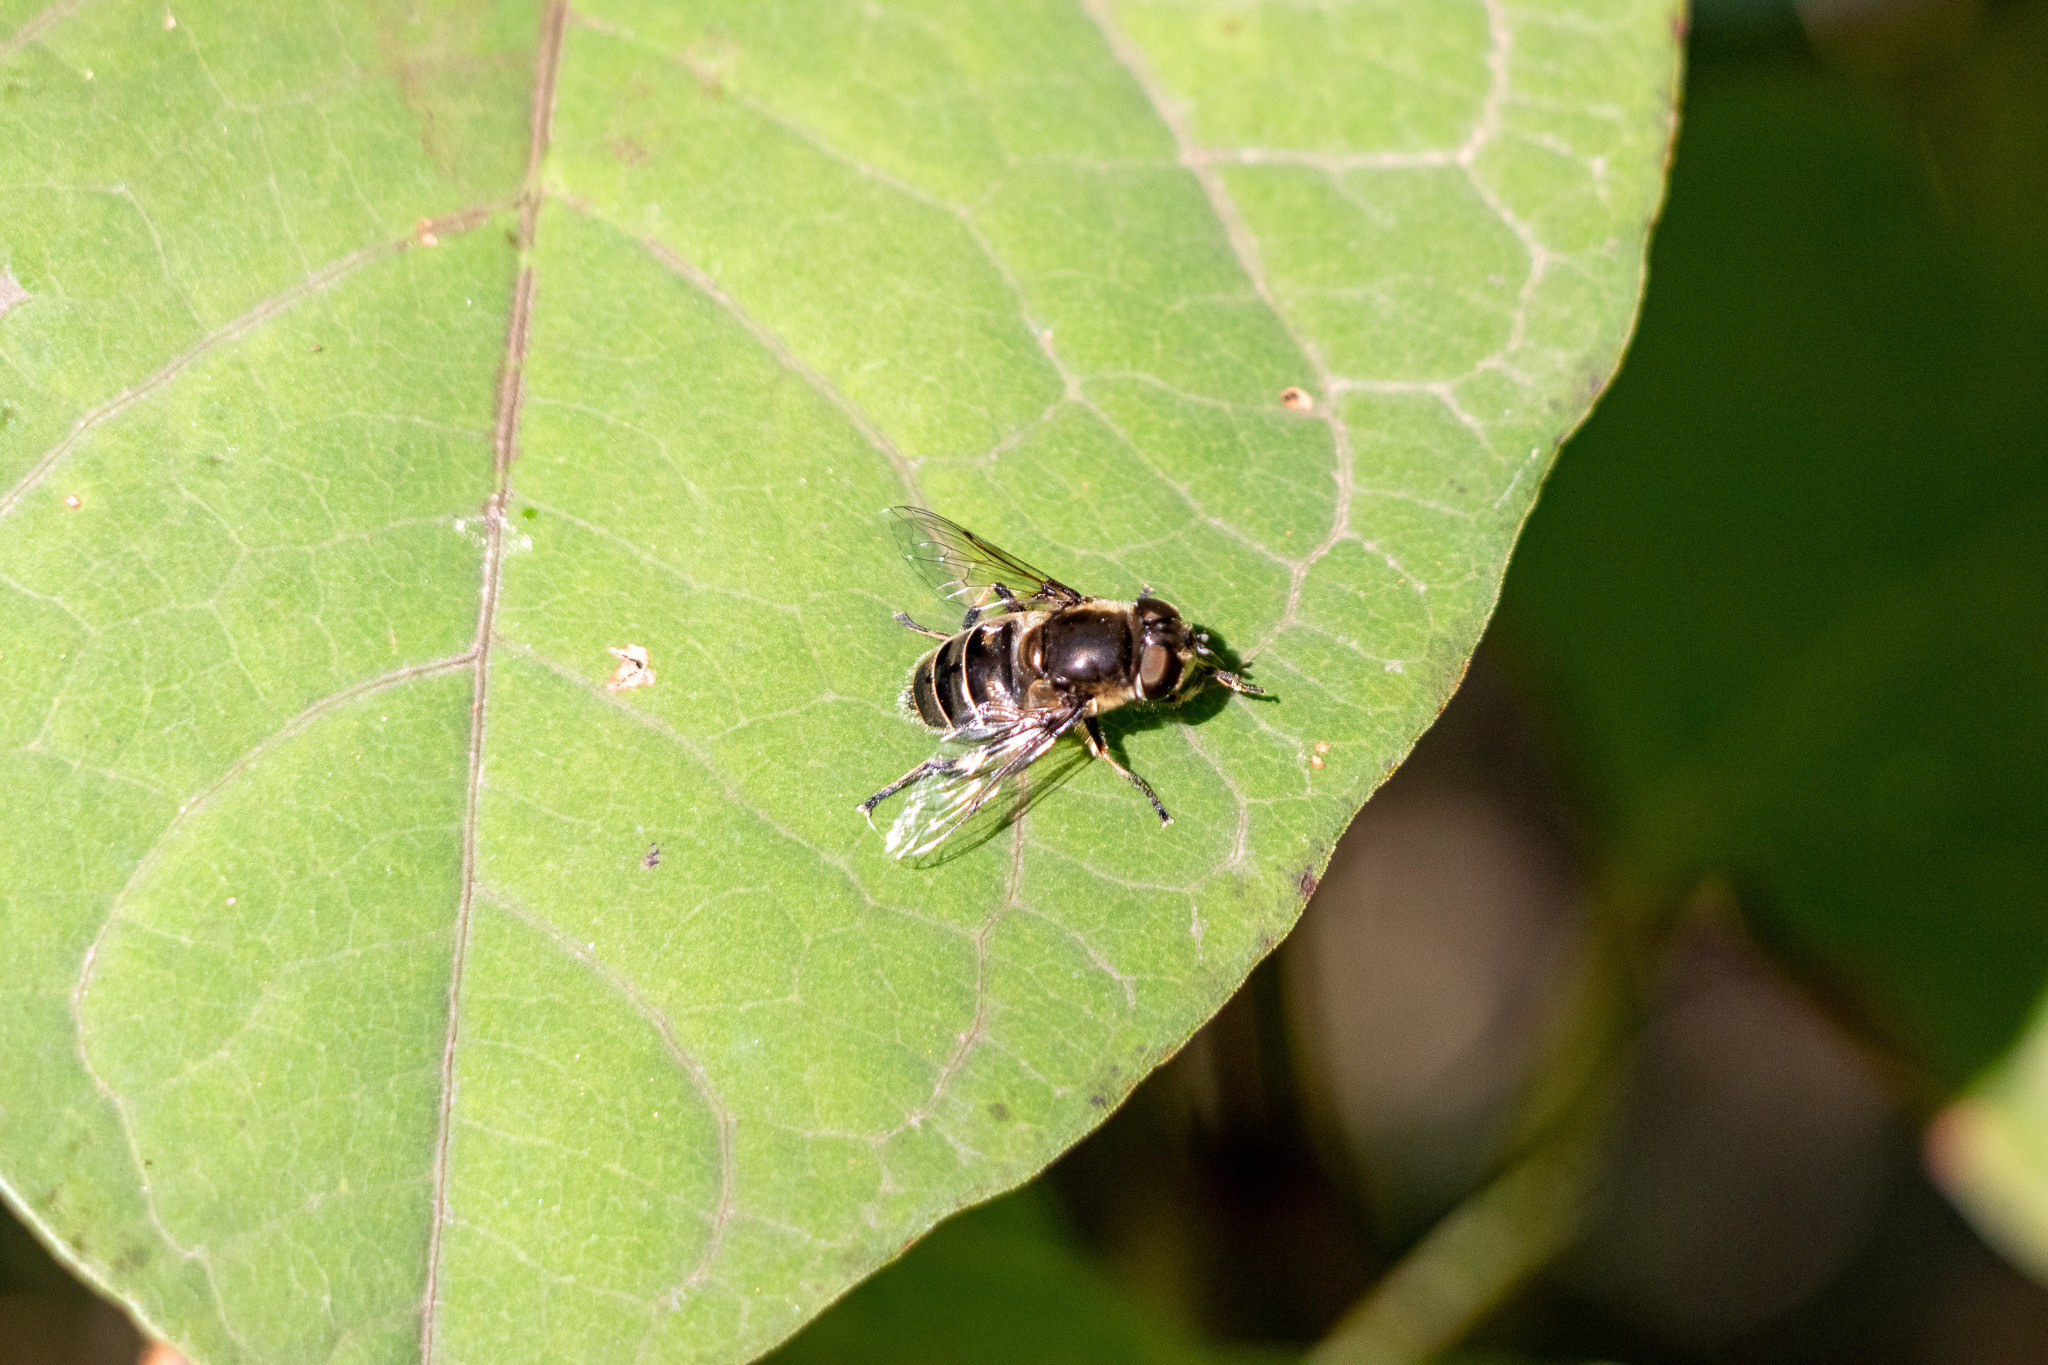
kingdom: Animalia
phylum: Arthropoda
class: Insecta
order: Diptera
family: Syrphidae
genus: Eristalis
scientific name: Eristalis dimidiata
